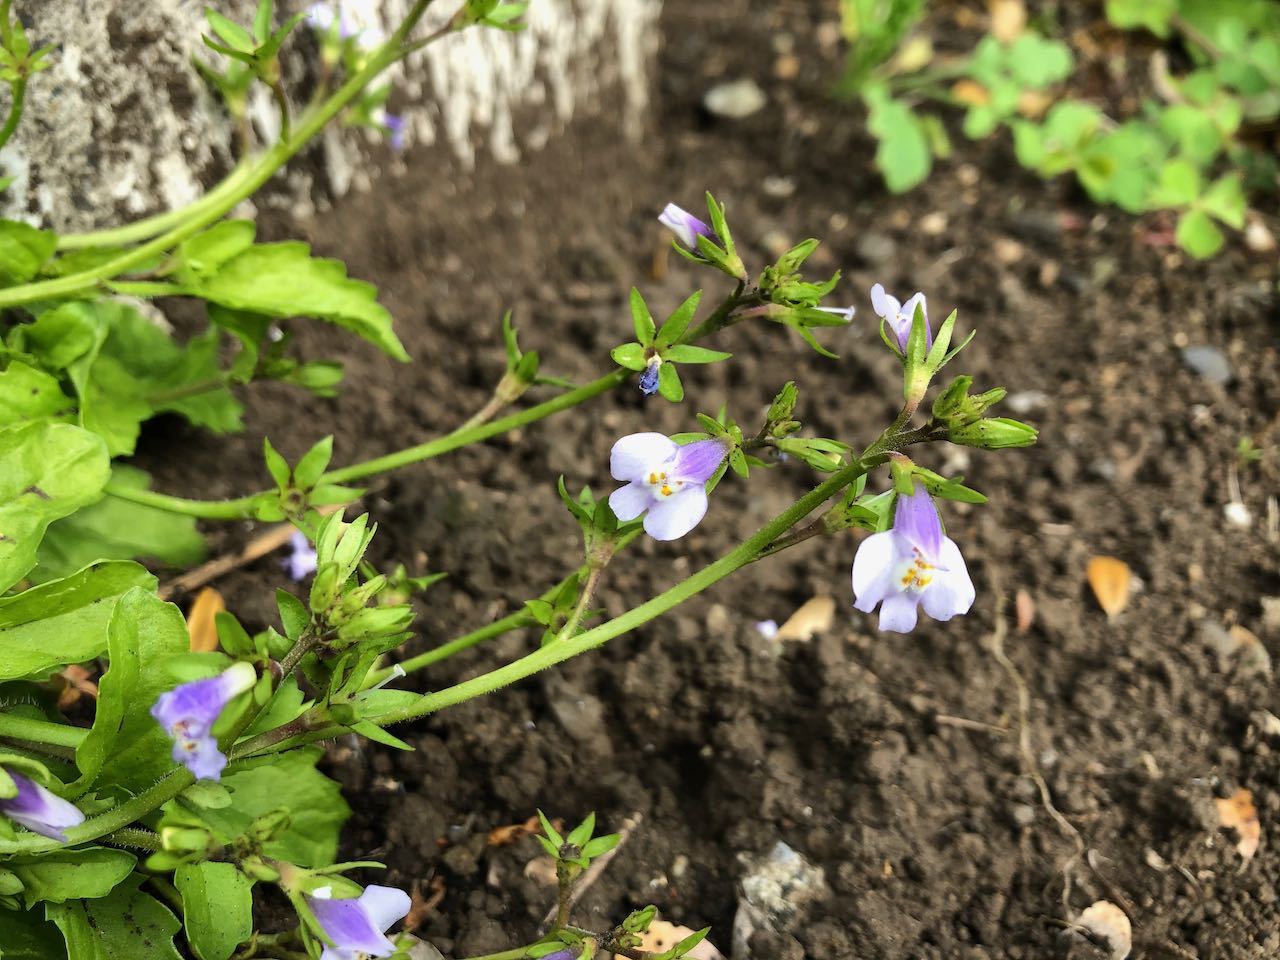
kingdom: Plantae
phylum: Tracheophyta
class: Magnoliopsida
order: Lamiales
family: Mazaceae
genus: Mazus
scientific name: Mazus pumilus
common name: Japanese mazus
